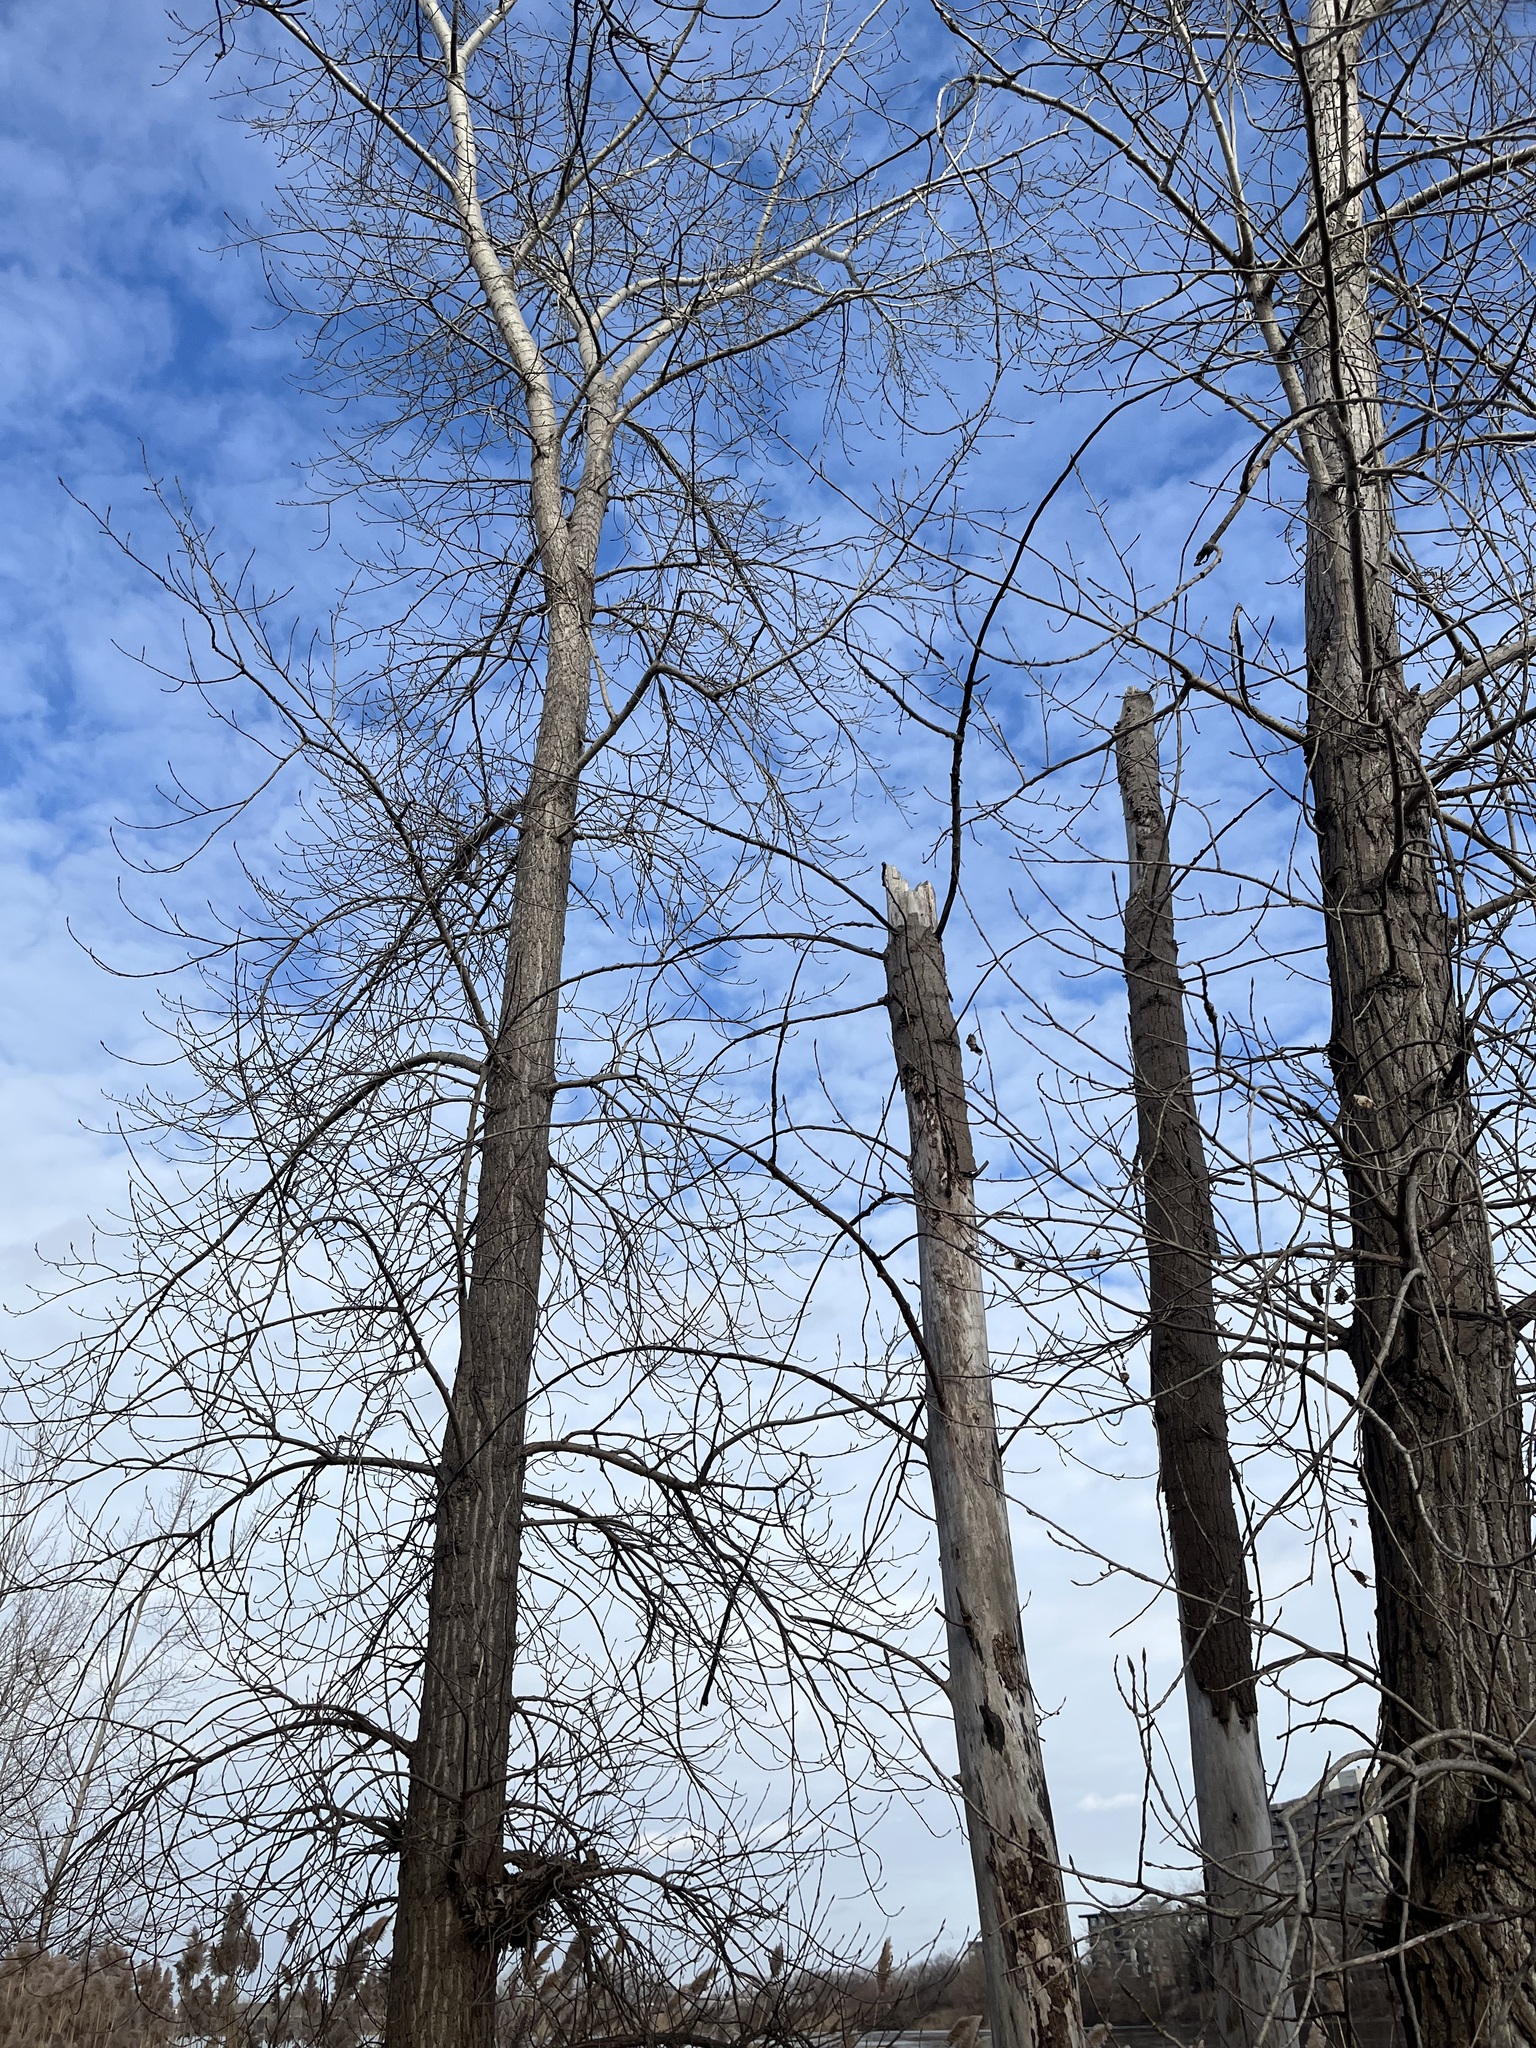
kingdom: Plantae
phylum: Tracheophyta
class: Magnoliopsida
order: Malpighiales
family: Salicaceae
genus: Populus
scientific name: Populus deltoides
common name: Eastern cottonwood
